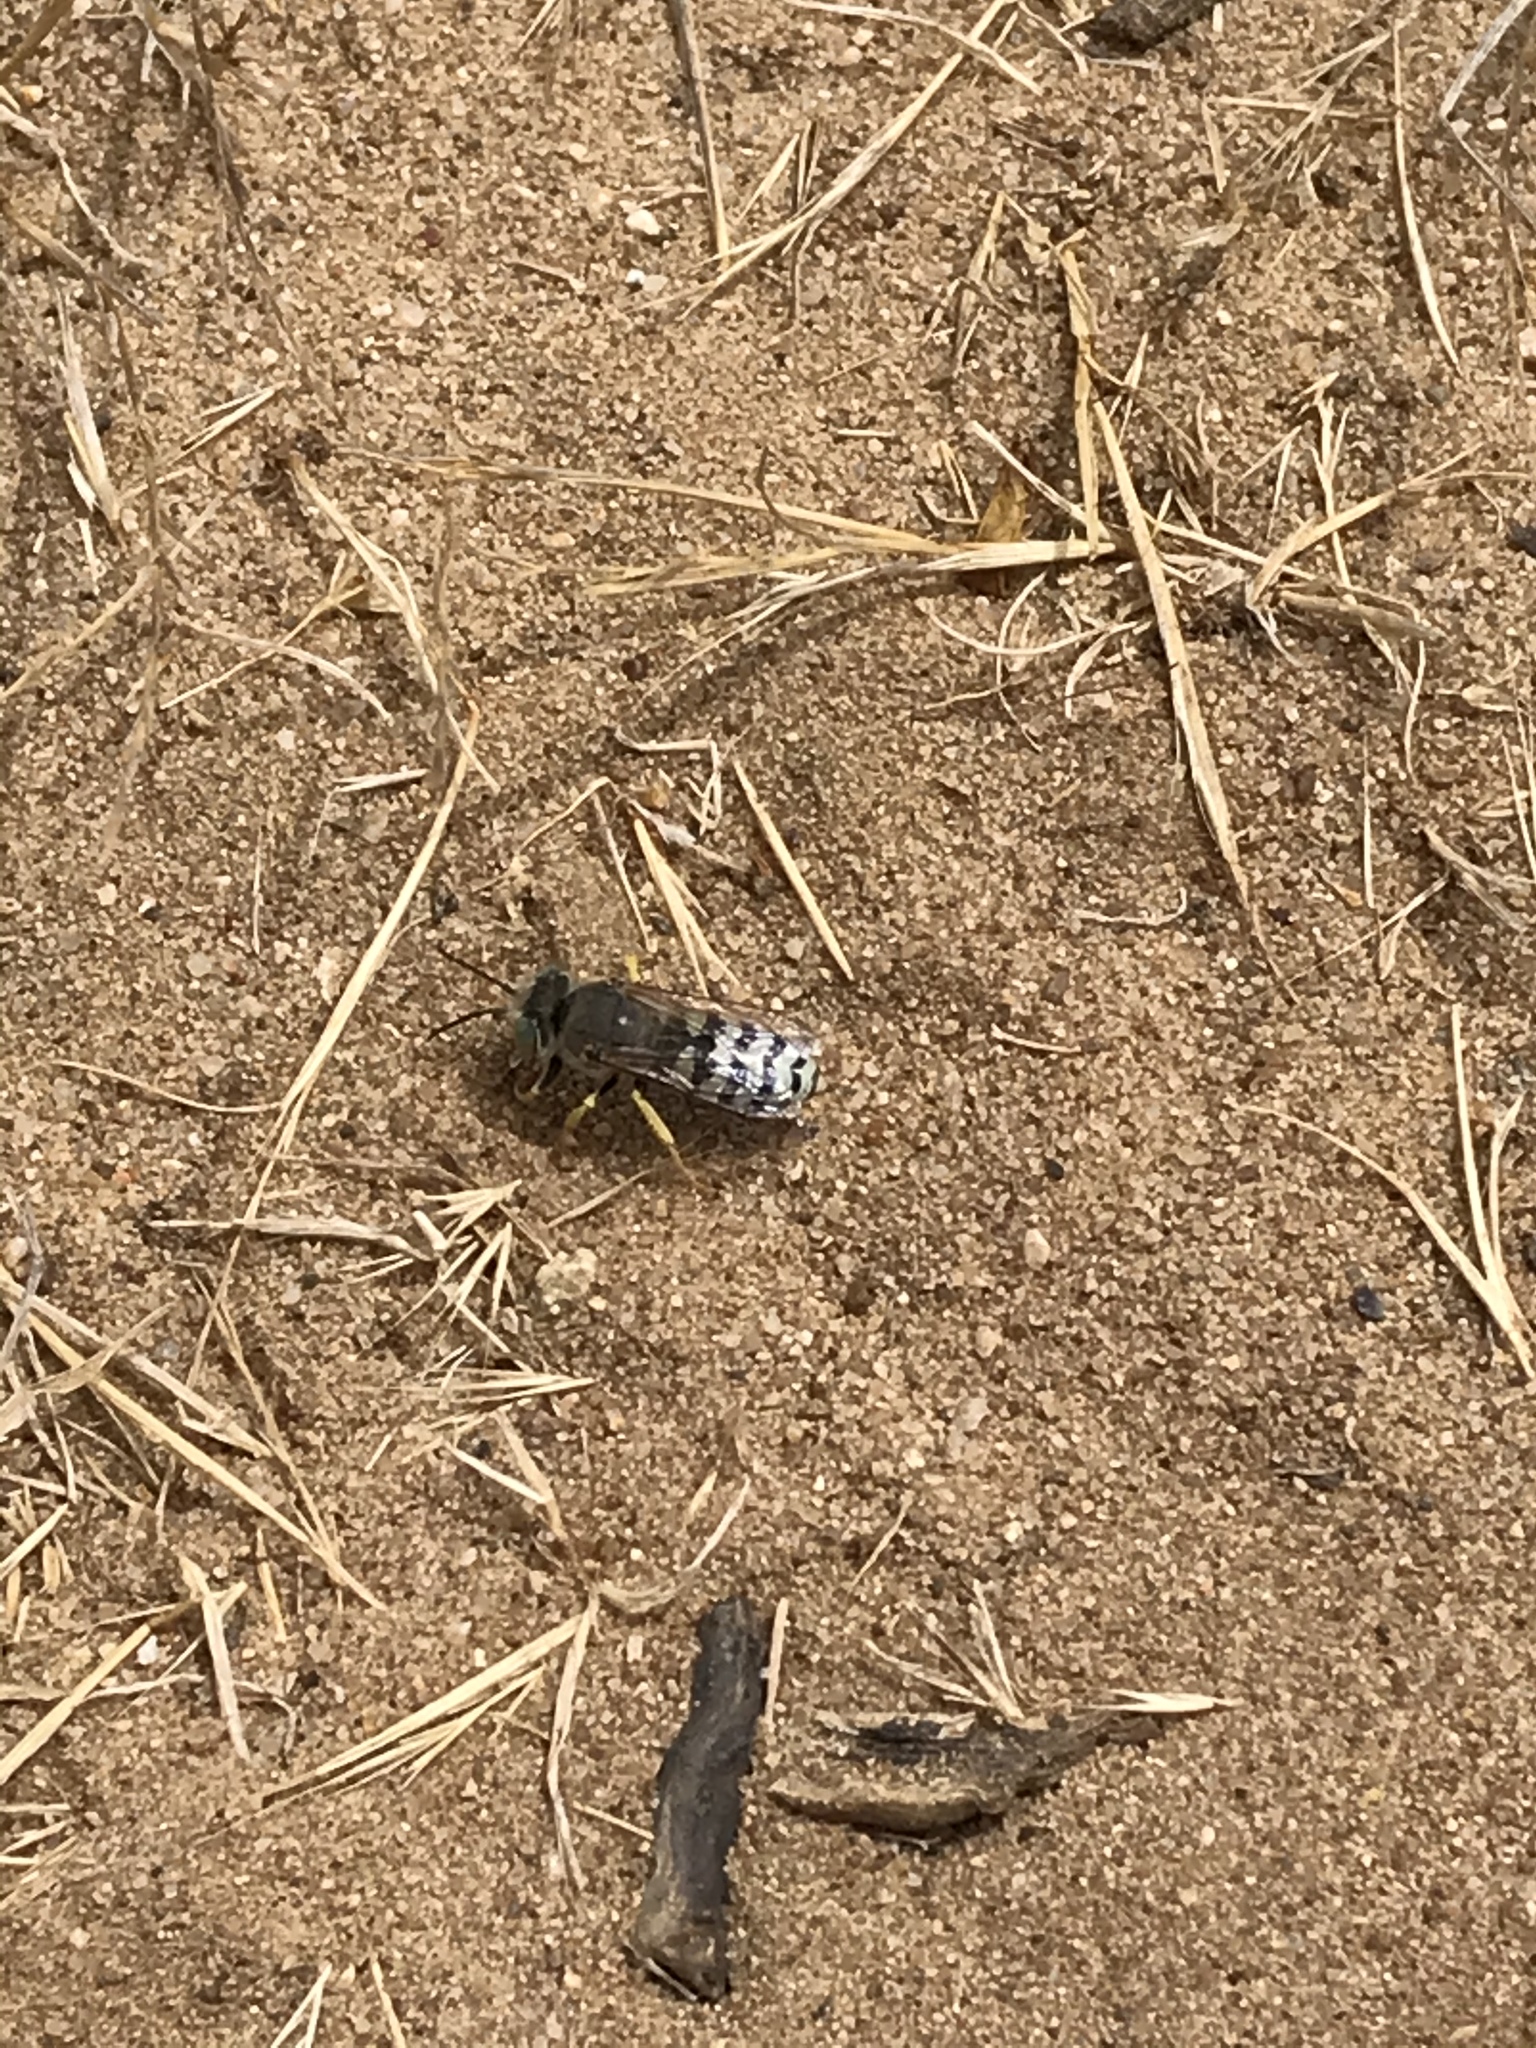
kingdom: Animalia
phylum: Arthropoda
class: Insecta
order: Hymenoptera
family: Crabronidae
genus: Bembix
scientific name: Bembix americana
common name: American sand wasp
